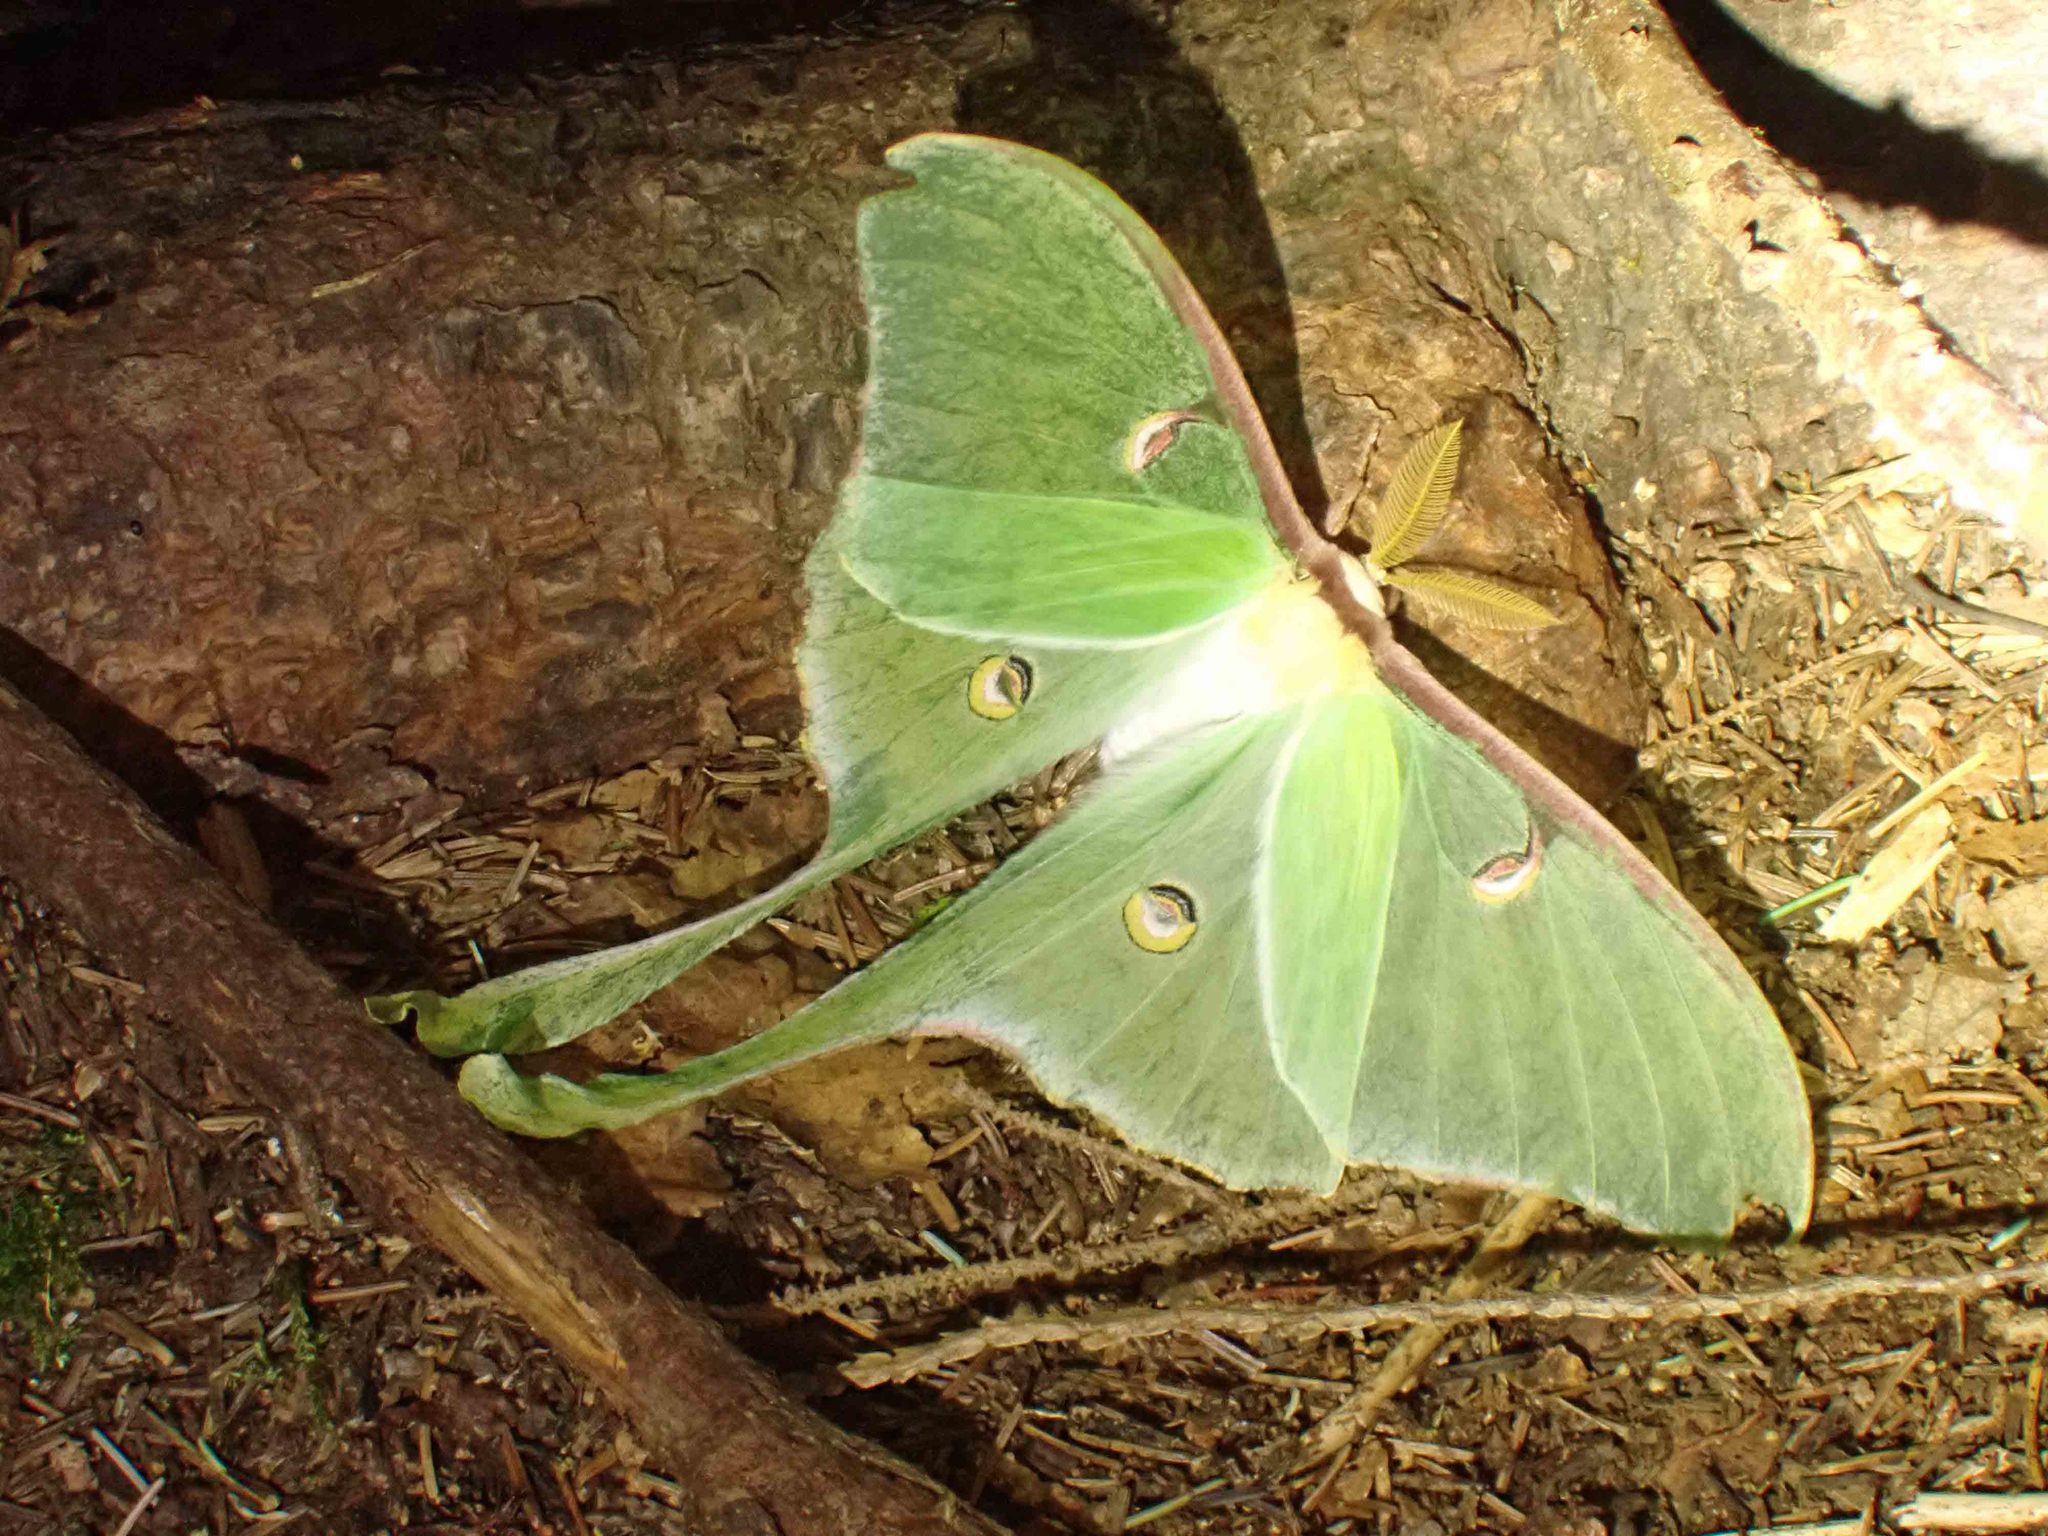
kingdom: Animalia
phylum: Arthropoda
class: Insecta
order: Lepidoptera
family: Saturniidae
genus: Actias
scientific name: Actias luna
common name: Luna moth
